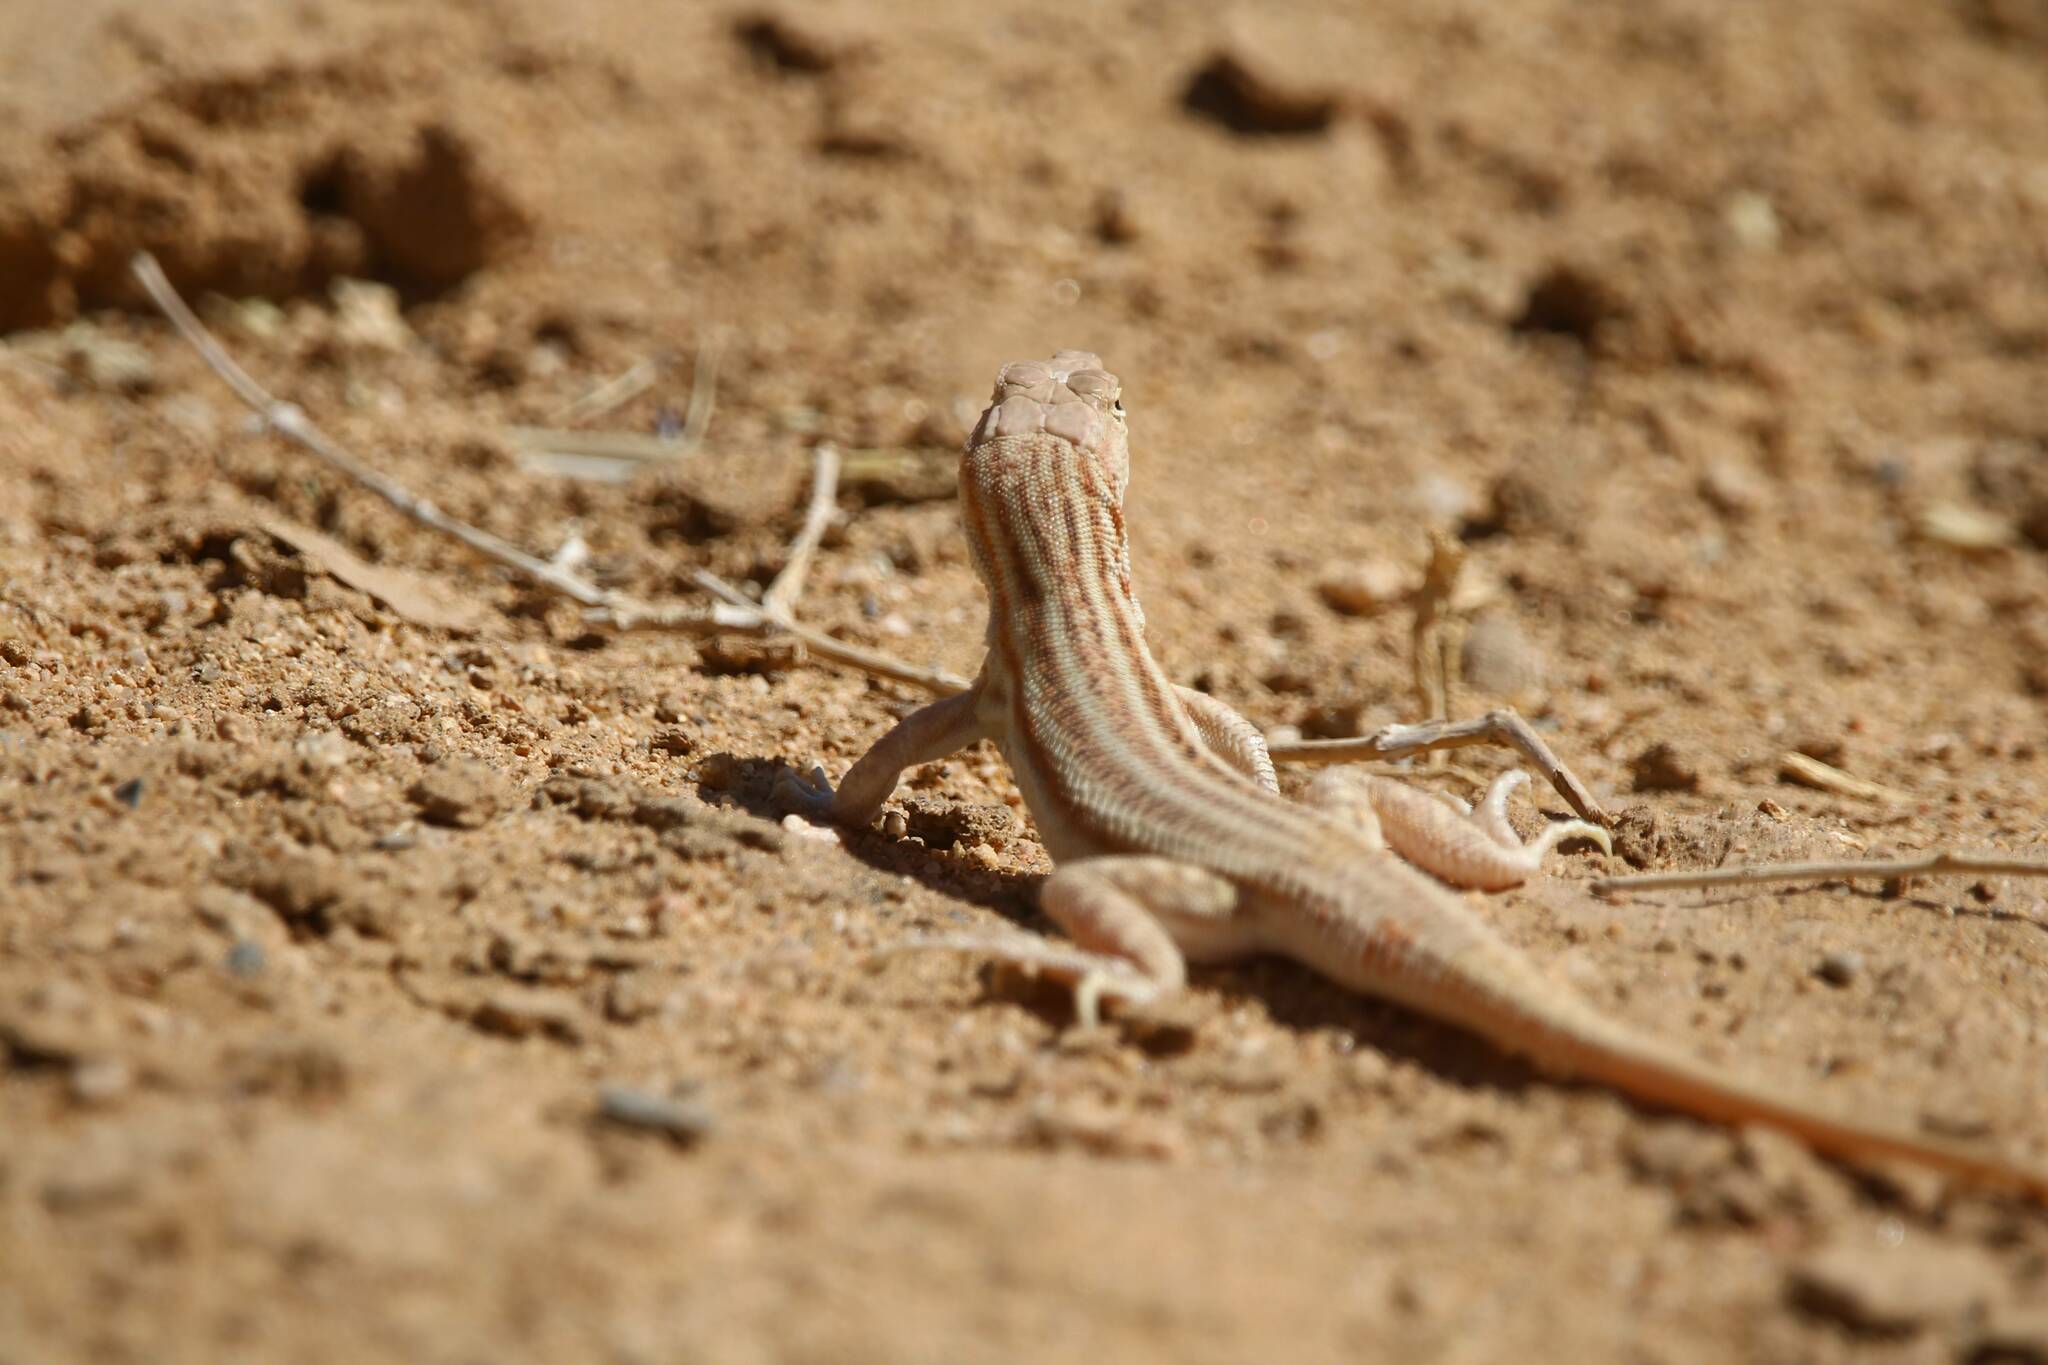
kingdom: Animalia
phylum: Chordata
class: Squamata
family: Lacertidae
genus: Acanthodactylus
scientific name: Acanthodactylus boskianus
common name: Bosc’s fringe-toed lizard
